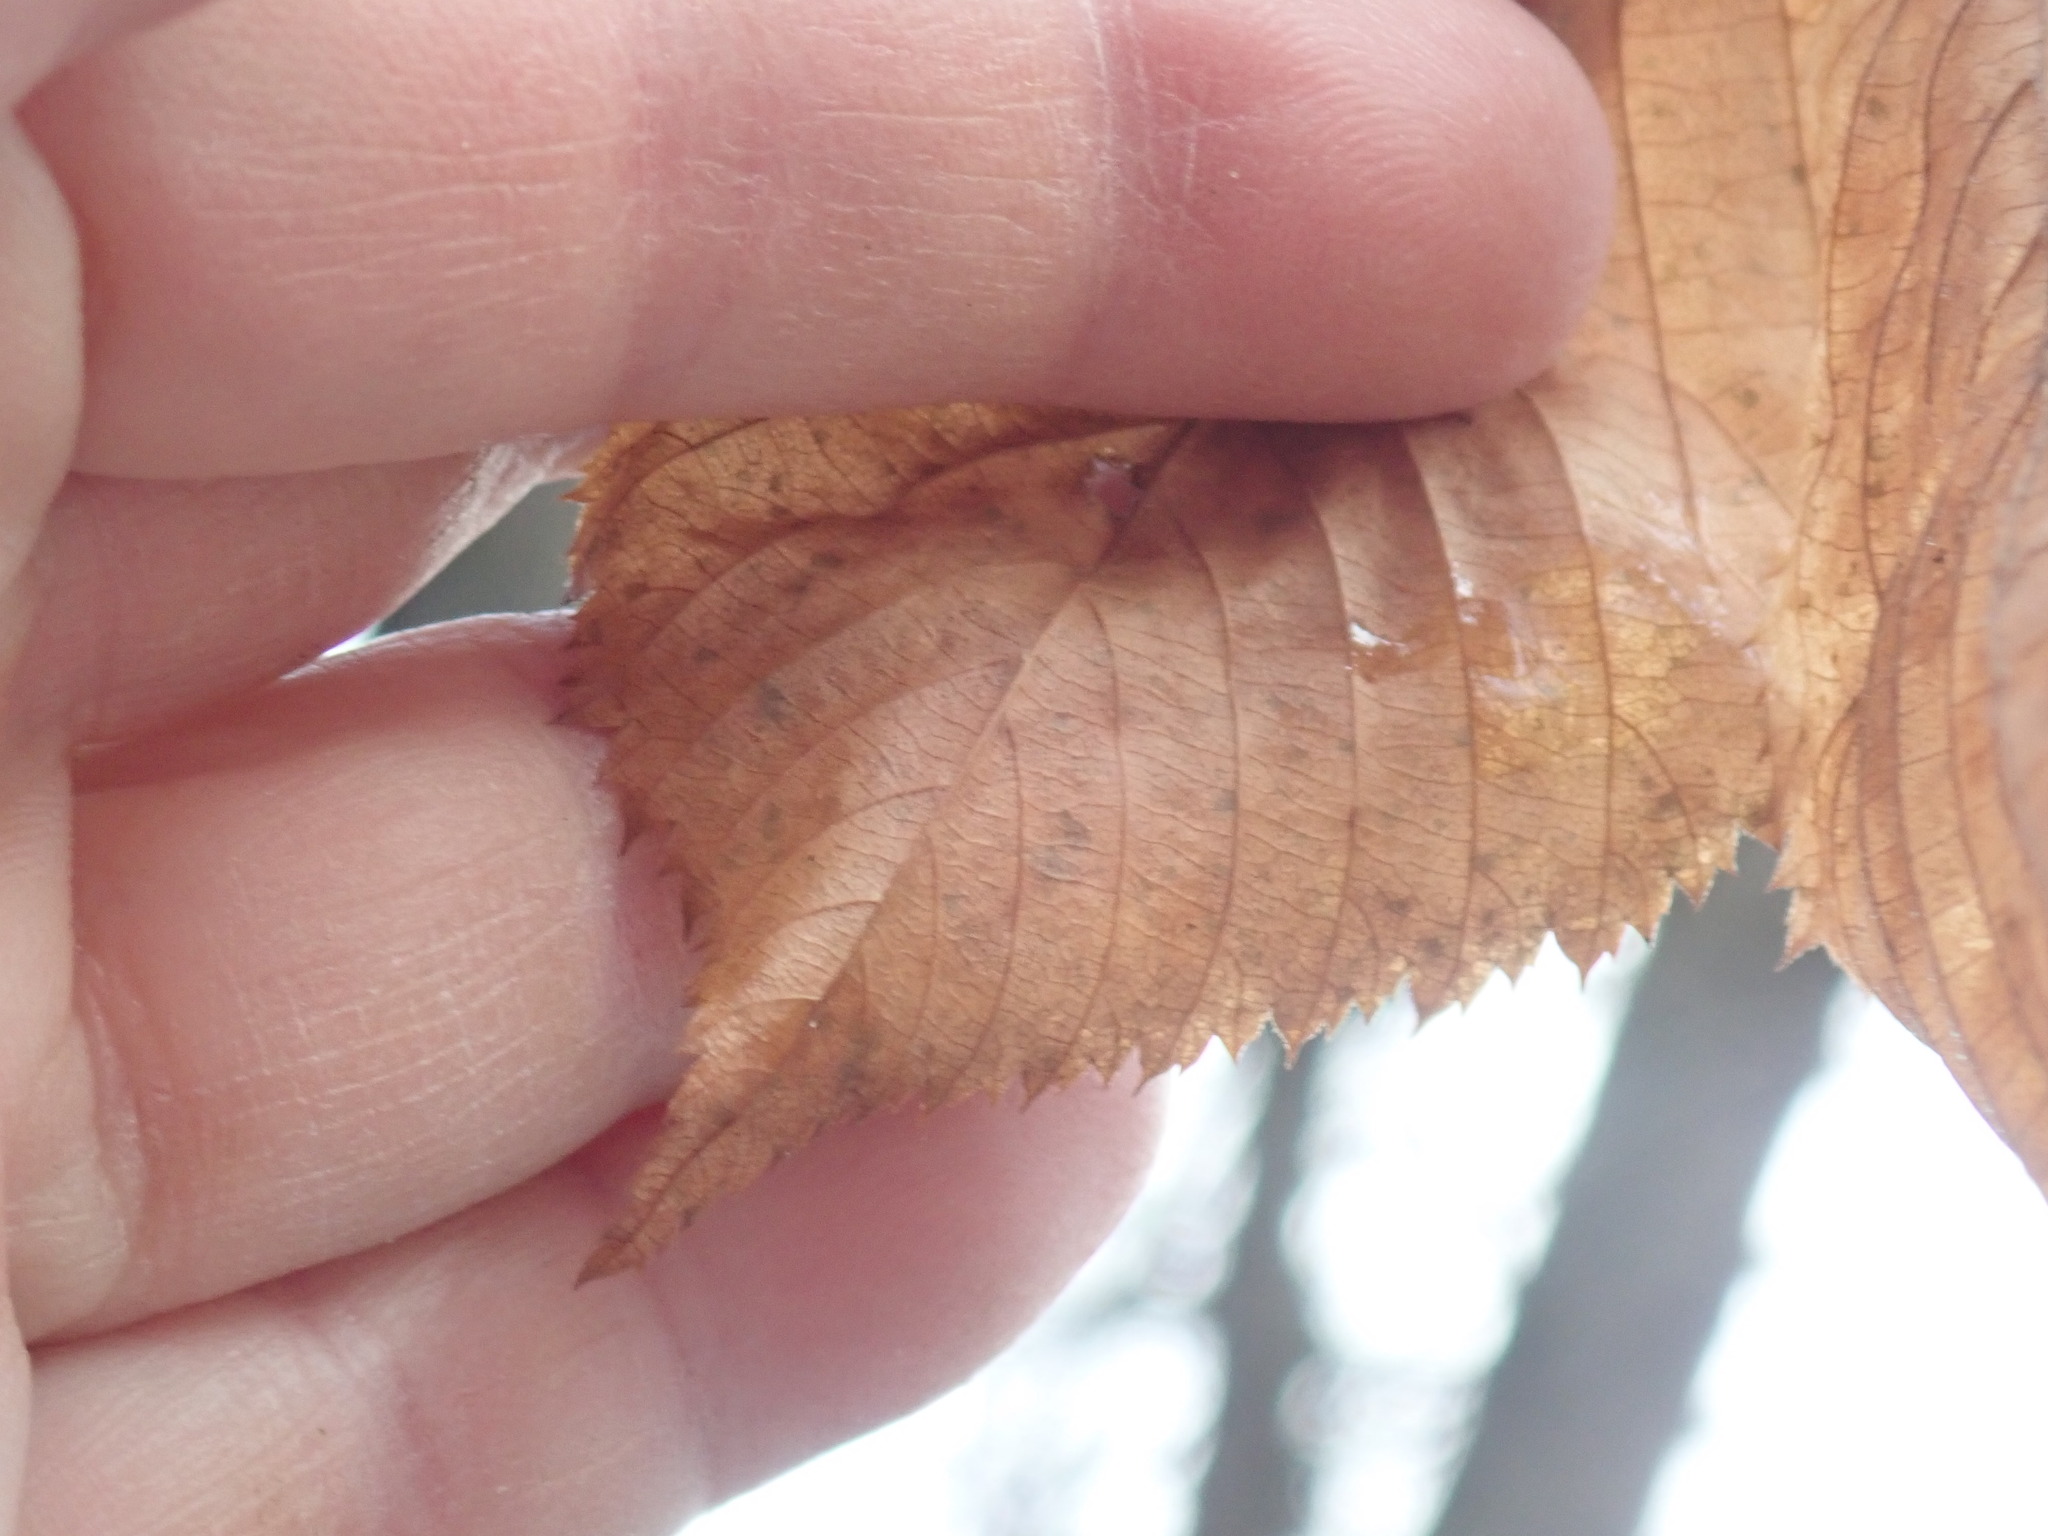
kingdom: Plantae
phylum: Tracheophyta
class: Magnoliopsida
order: Fagales
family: Betulaceae
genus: Ostrya
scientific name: Ostrya virginiana
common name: Ironwood
